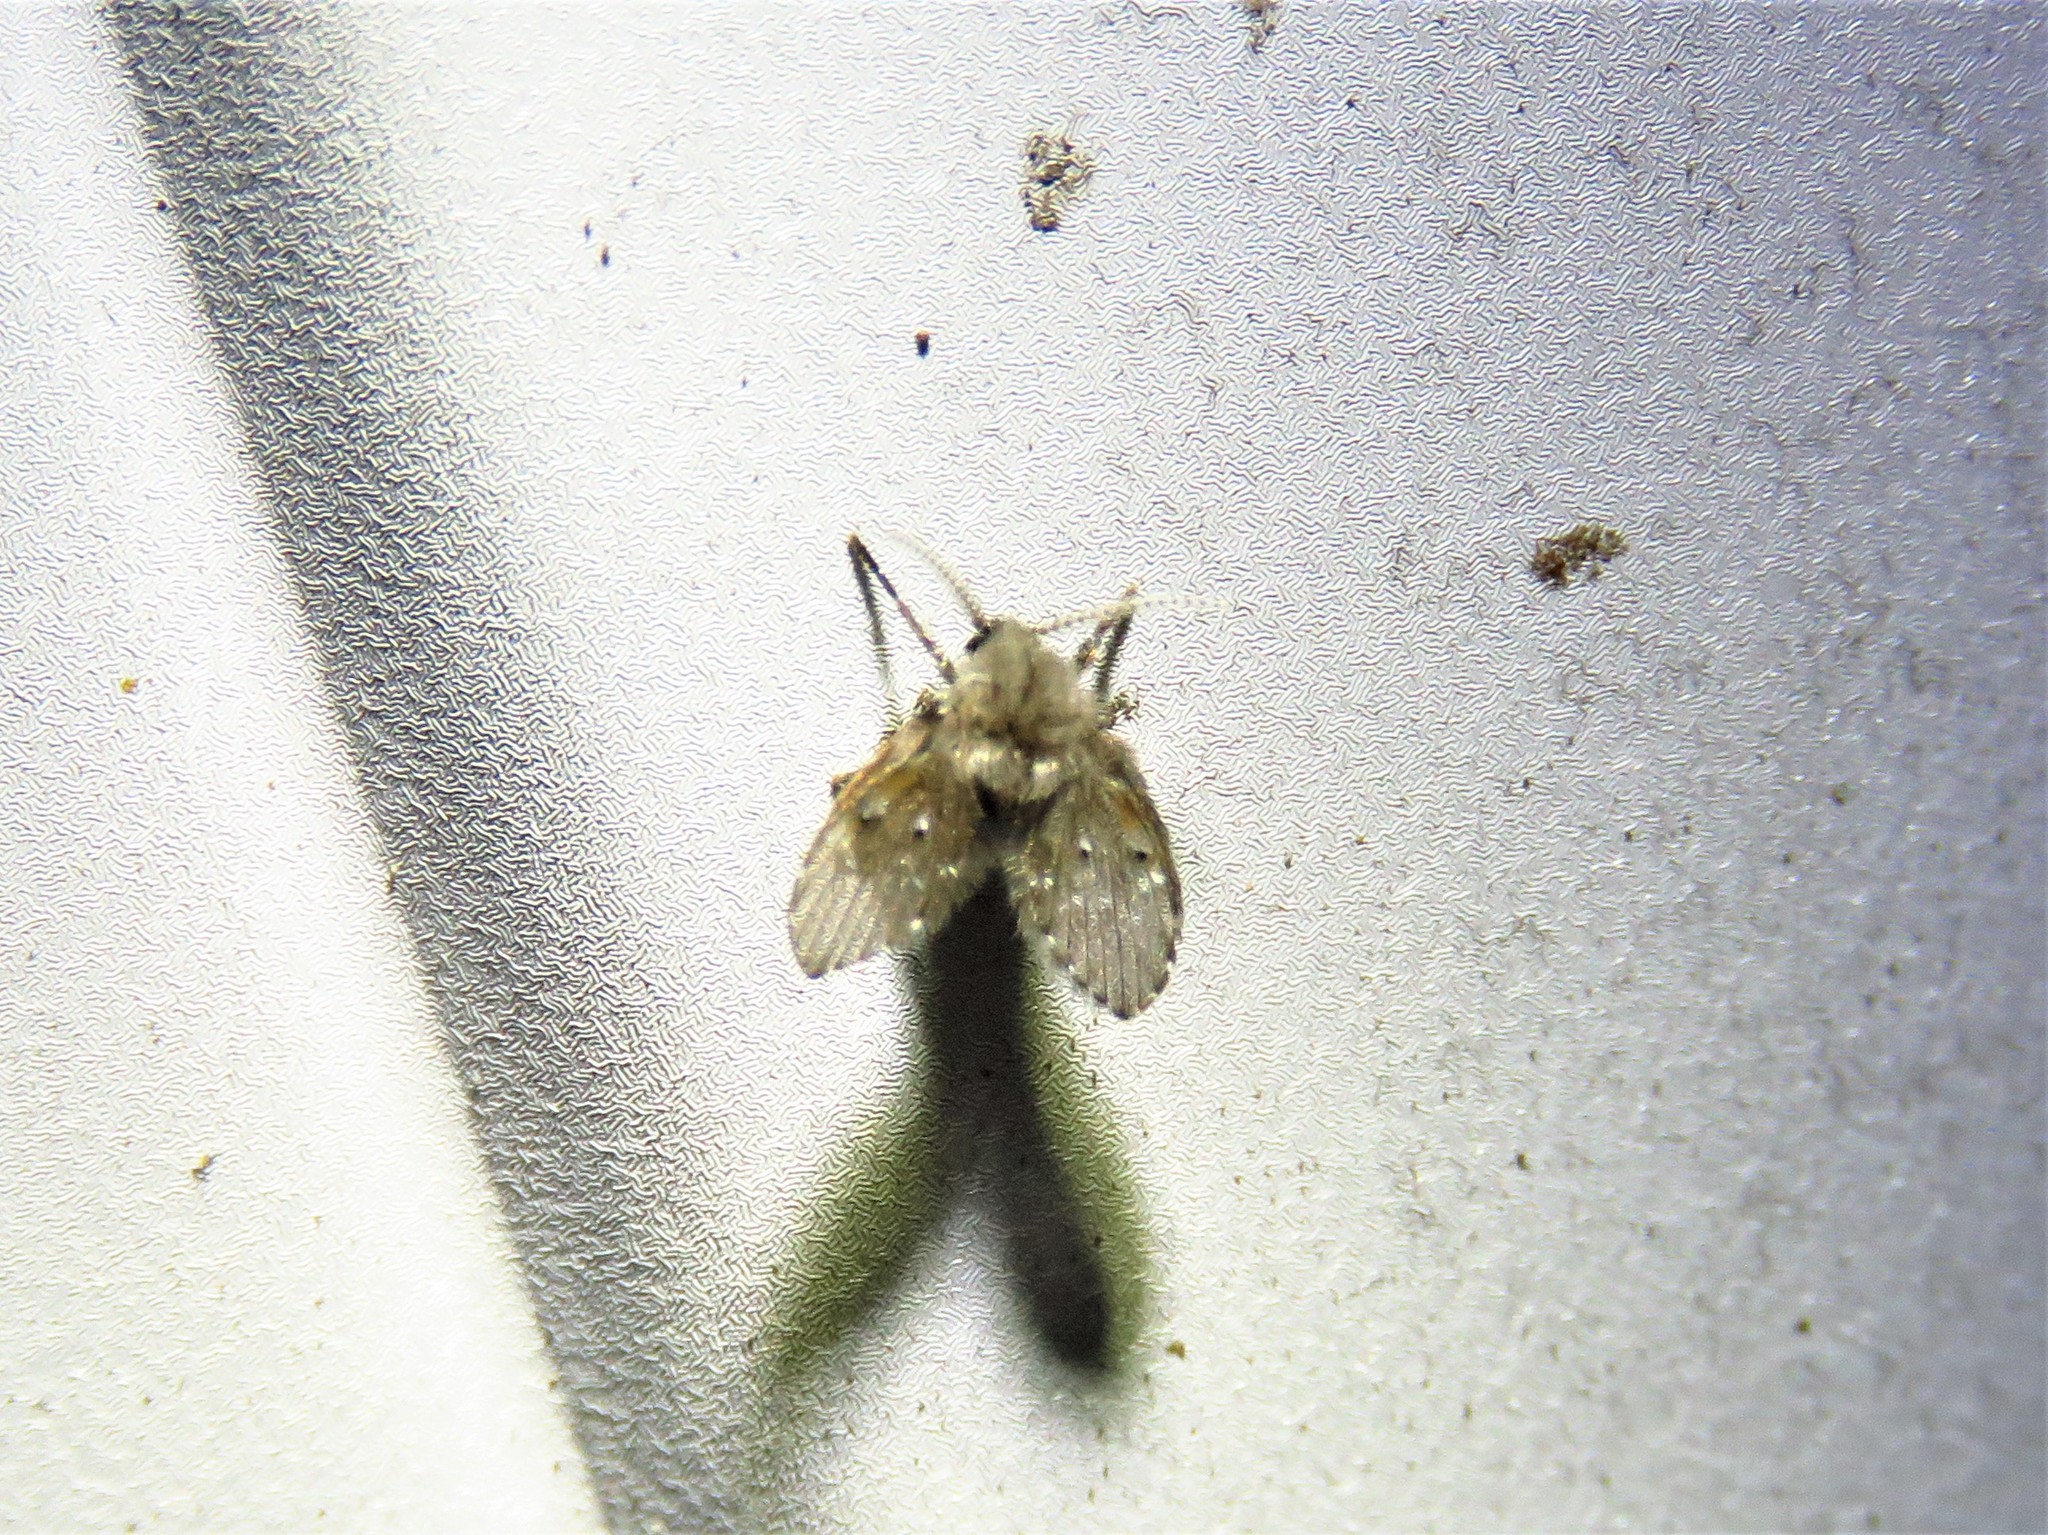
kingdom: Animalia
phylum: Arthropoda
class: Insecta
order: Diptera
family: Psychodidae
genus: Clogmia
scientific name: Clogmia albipunctatus
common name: White-spotted moth fly
